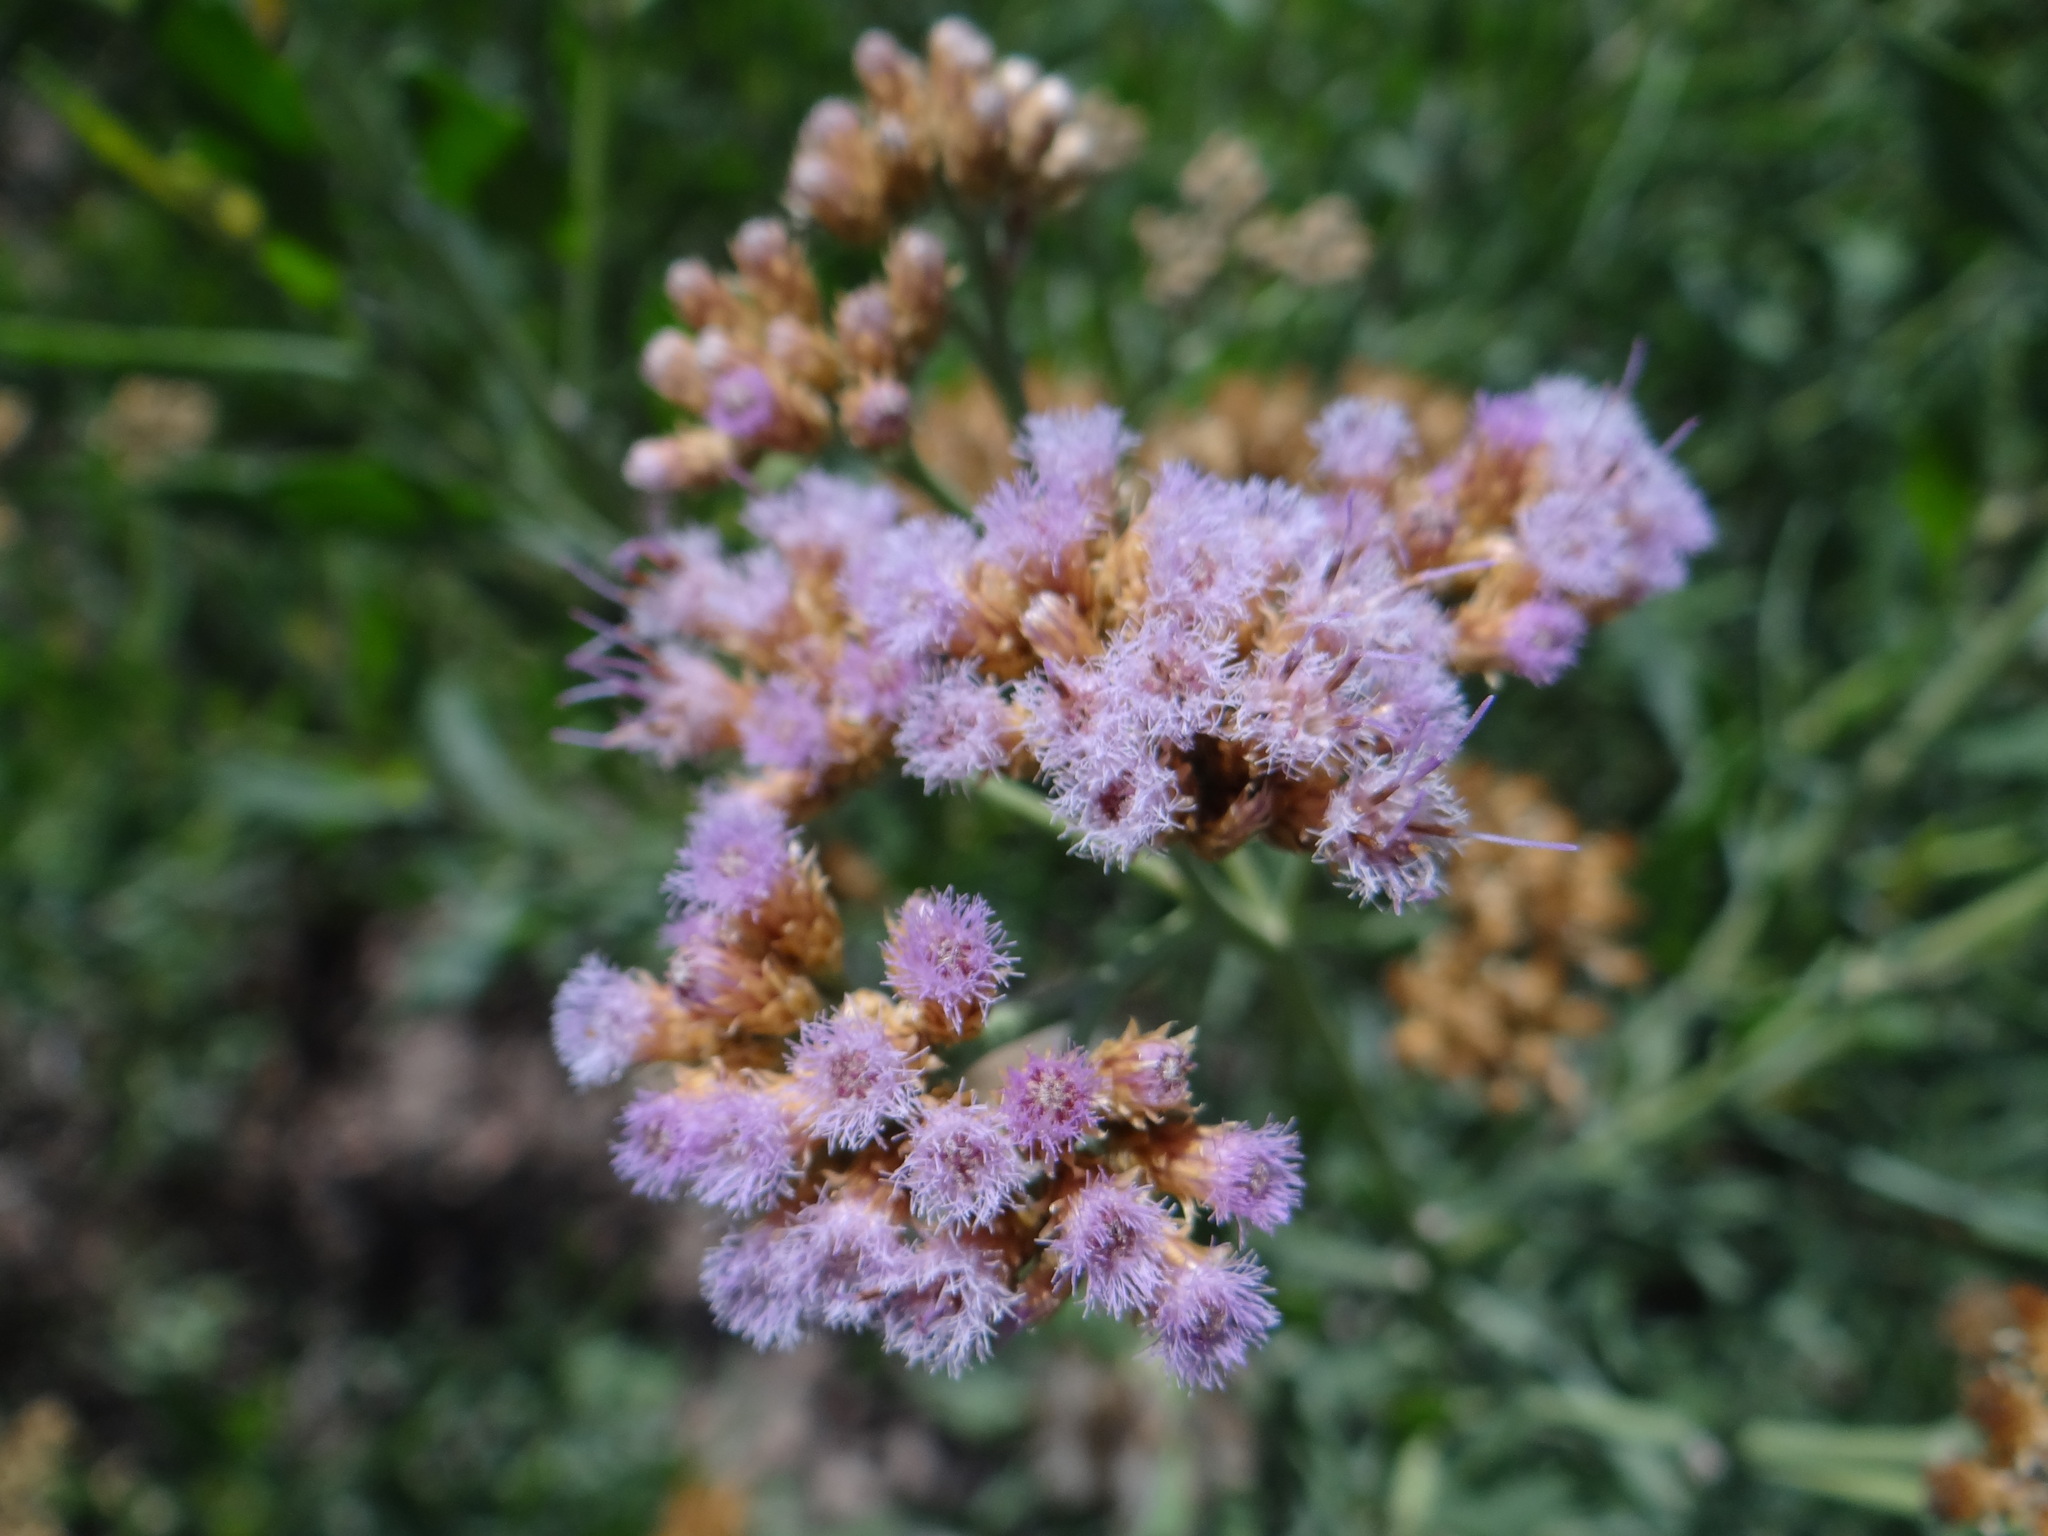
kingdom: Plantae
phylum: Tracheophyta
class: Magnoliopsida
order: Asterales
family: Asteraceae
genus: Tessaria
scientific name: Tessaria absinthioides
